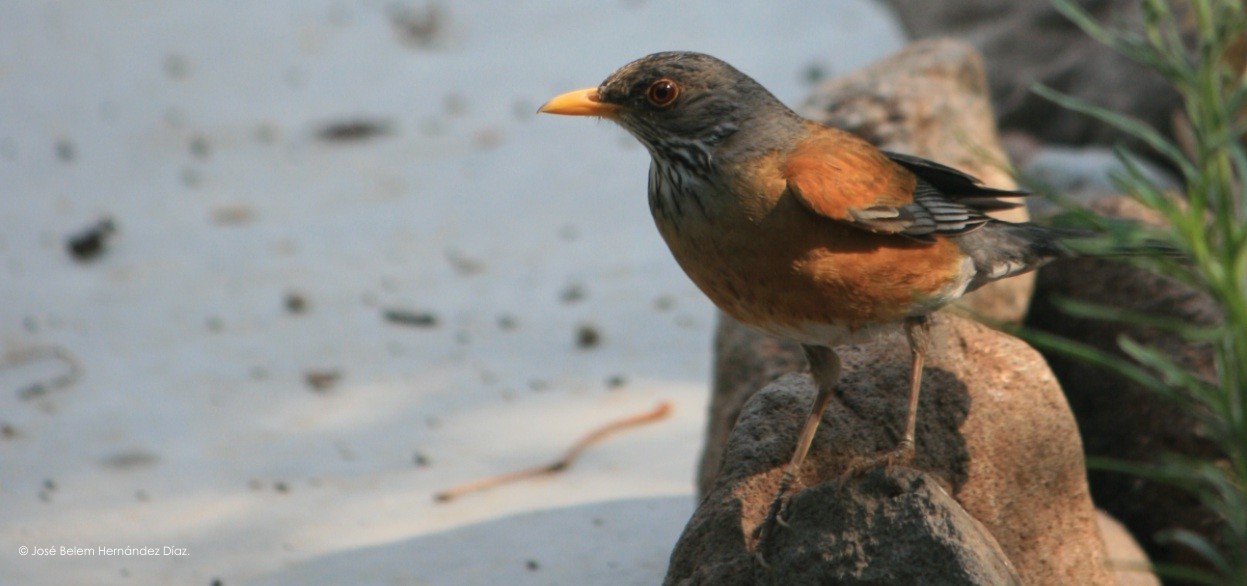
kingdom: Animalia
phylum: Chordata
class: Aves
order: Passeriformes
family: Turdidae
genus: Turdus
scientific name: Turdus rufopalliatus
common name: Rufous-backed robin
